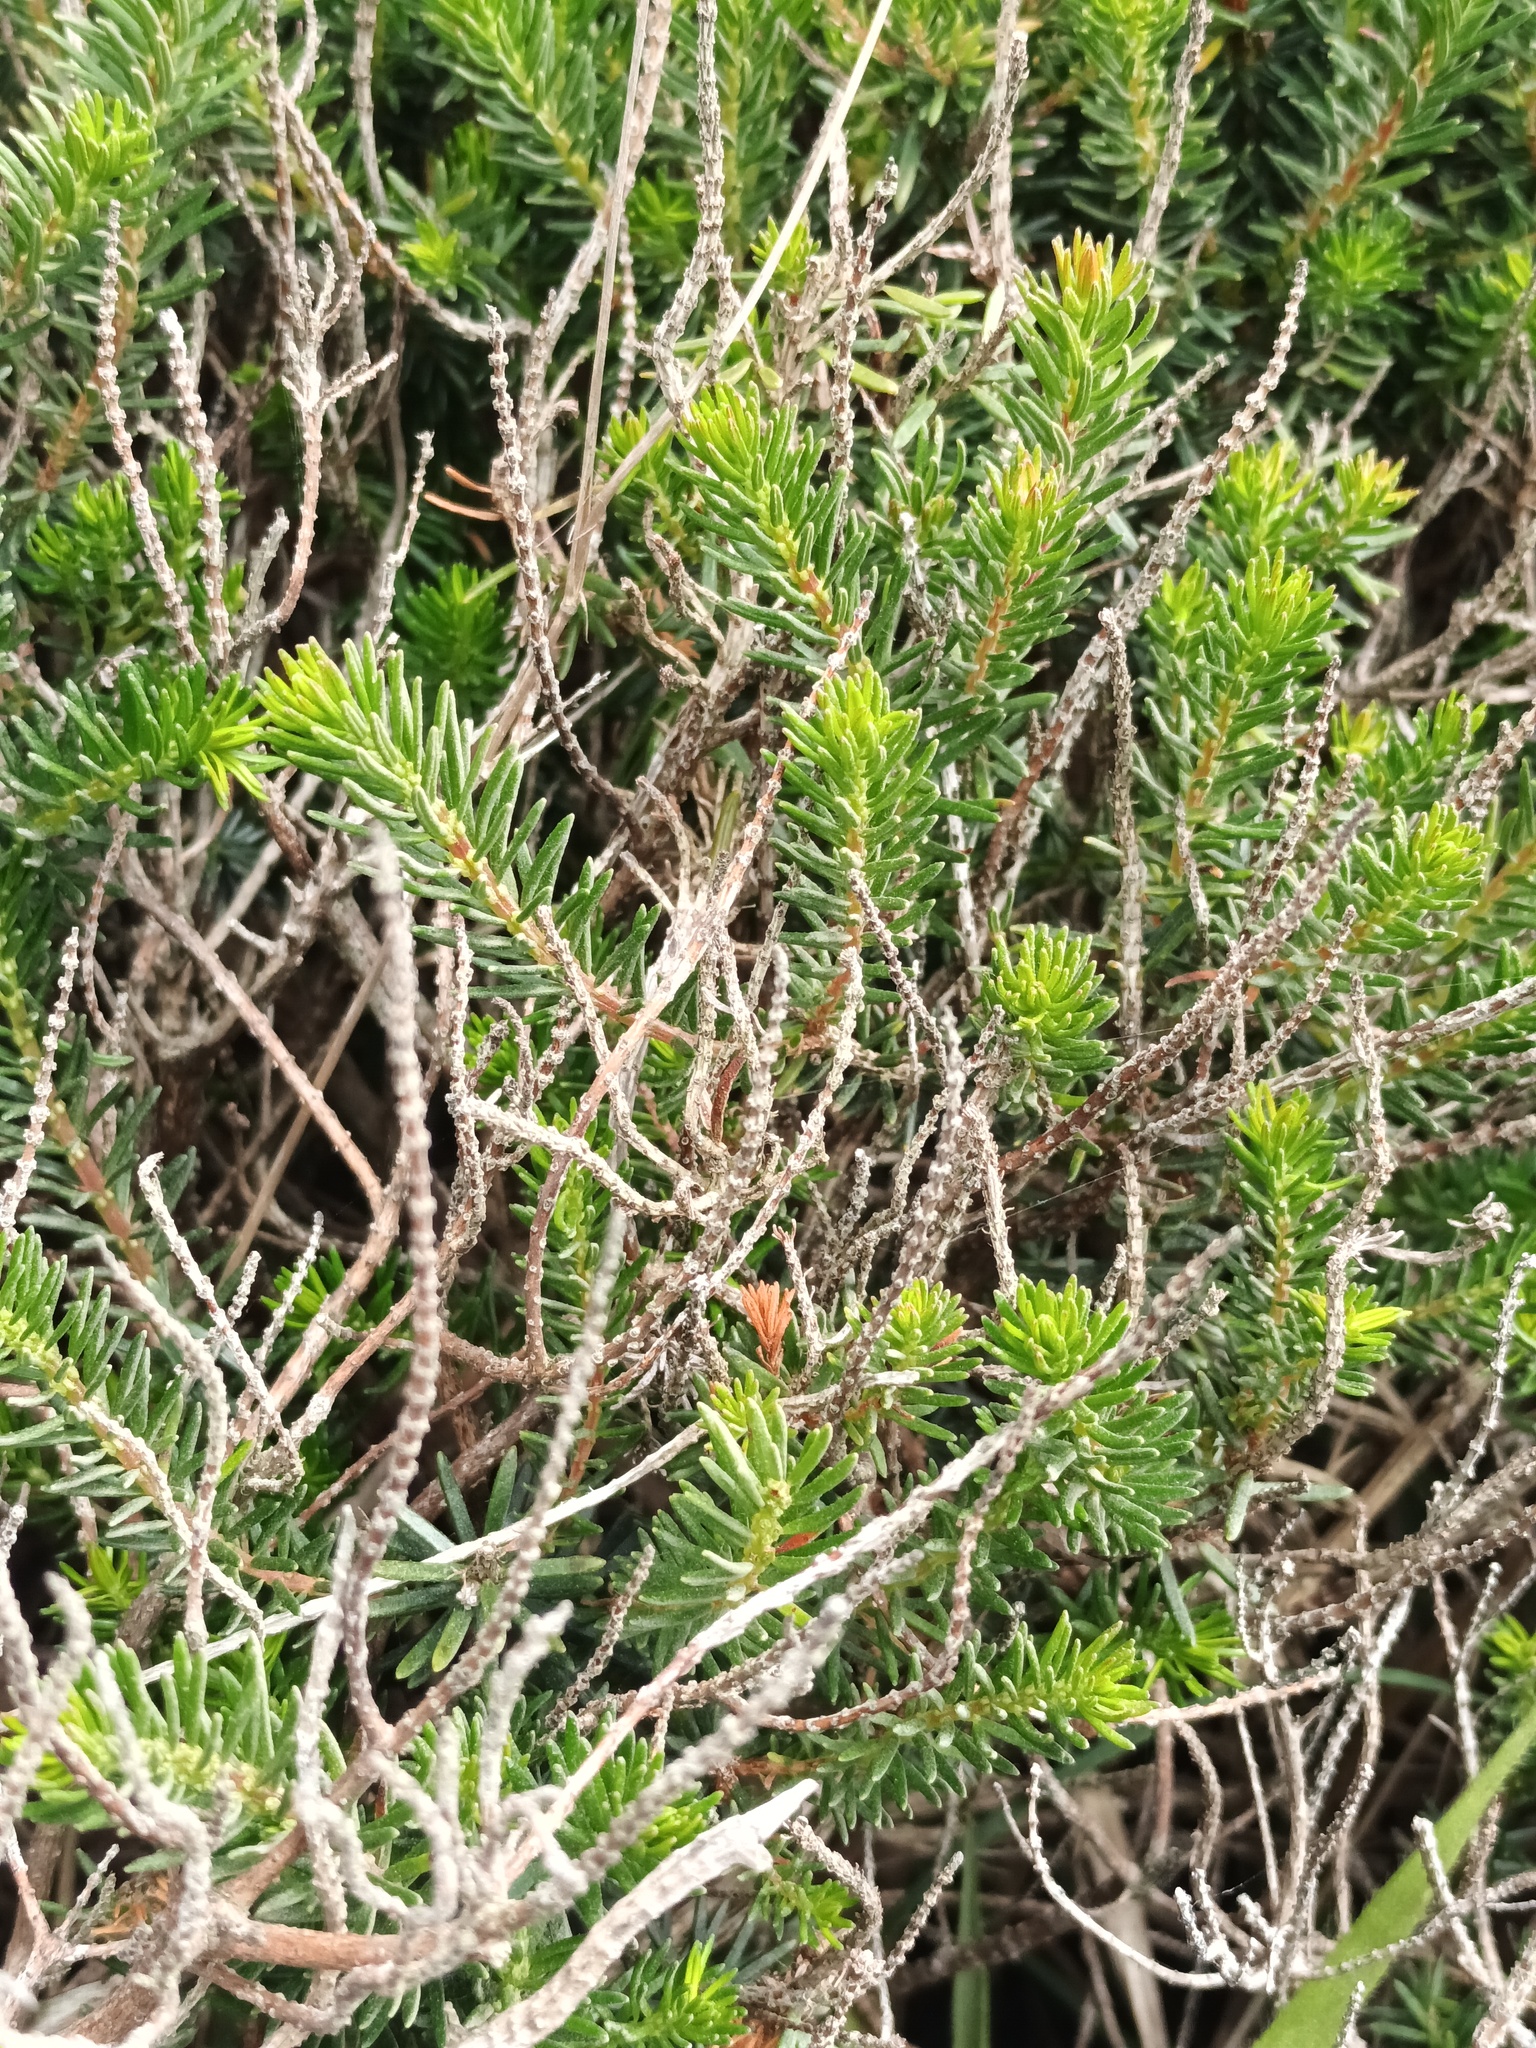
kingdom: Plantae
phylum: Tracheophyta
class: Magnoliopsida
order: Ericales
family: Ericaceae
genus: Erica
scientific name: Erica vagans
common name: Cornish heath
